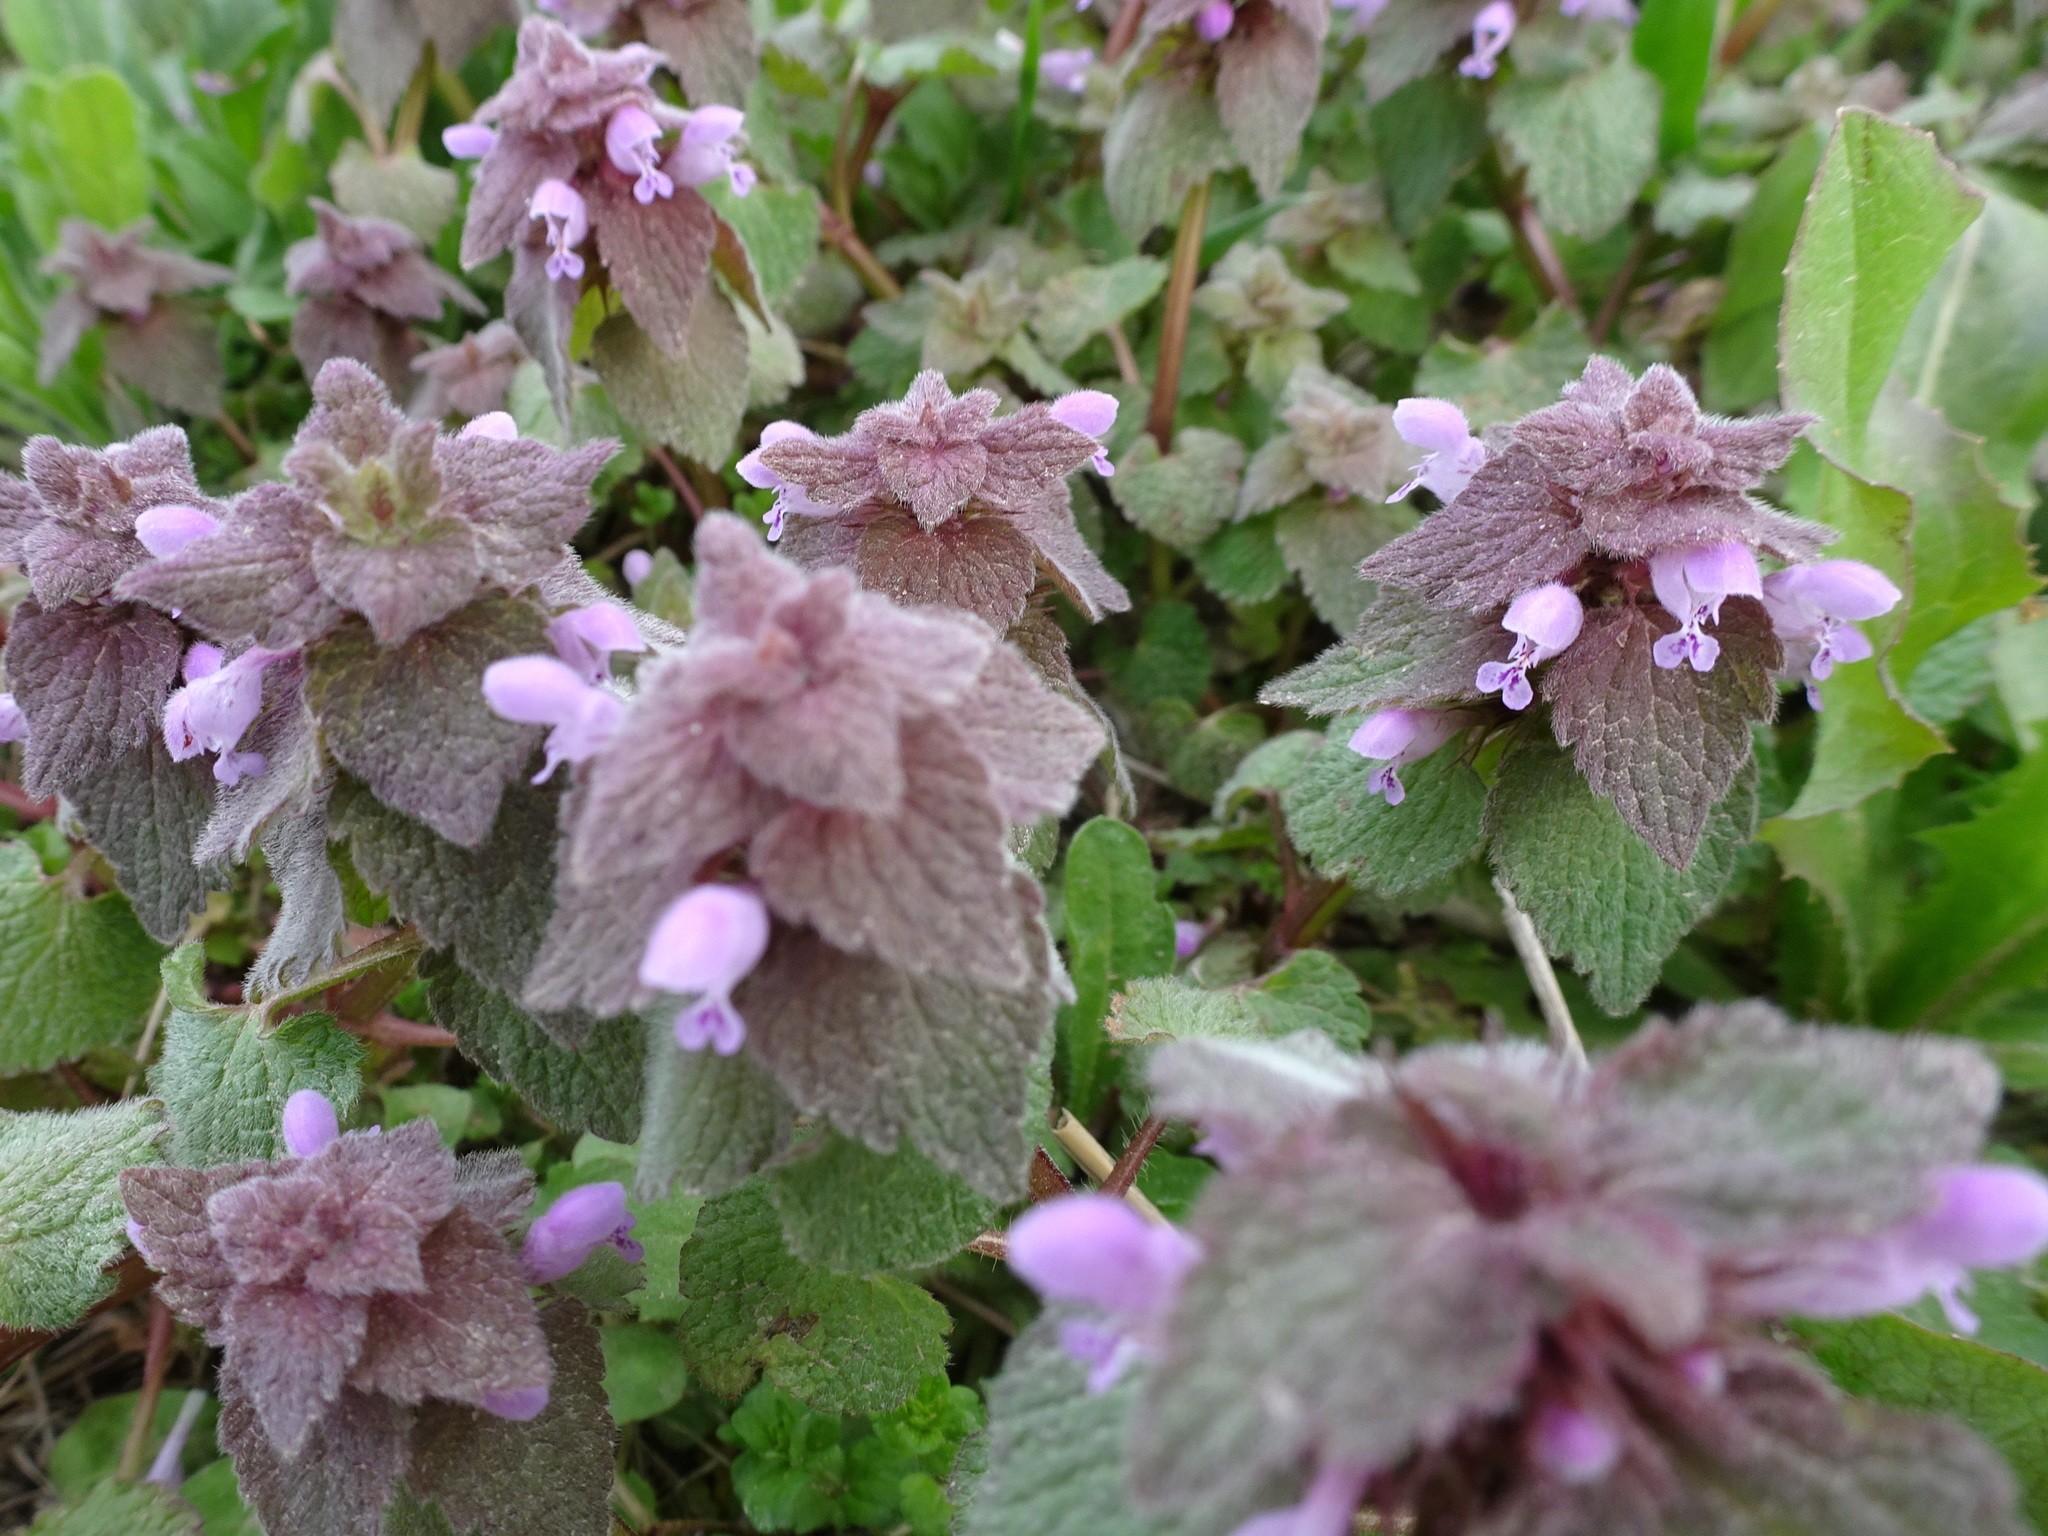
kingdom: Plantae
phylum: Tracheophyta
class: Magnoliopsida
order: Lamiales
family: Lamiaceae
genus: Lamium
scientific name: Lamium purpureum
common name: Red dead-nettle
